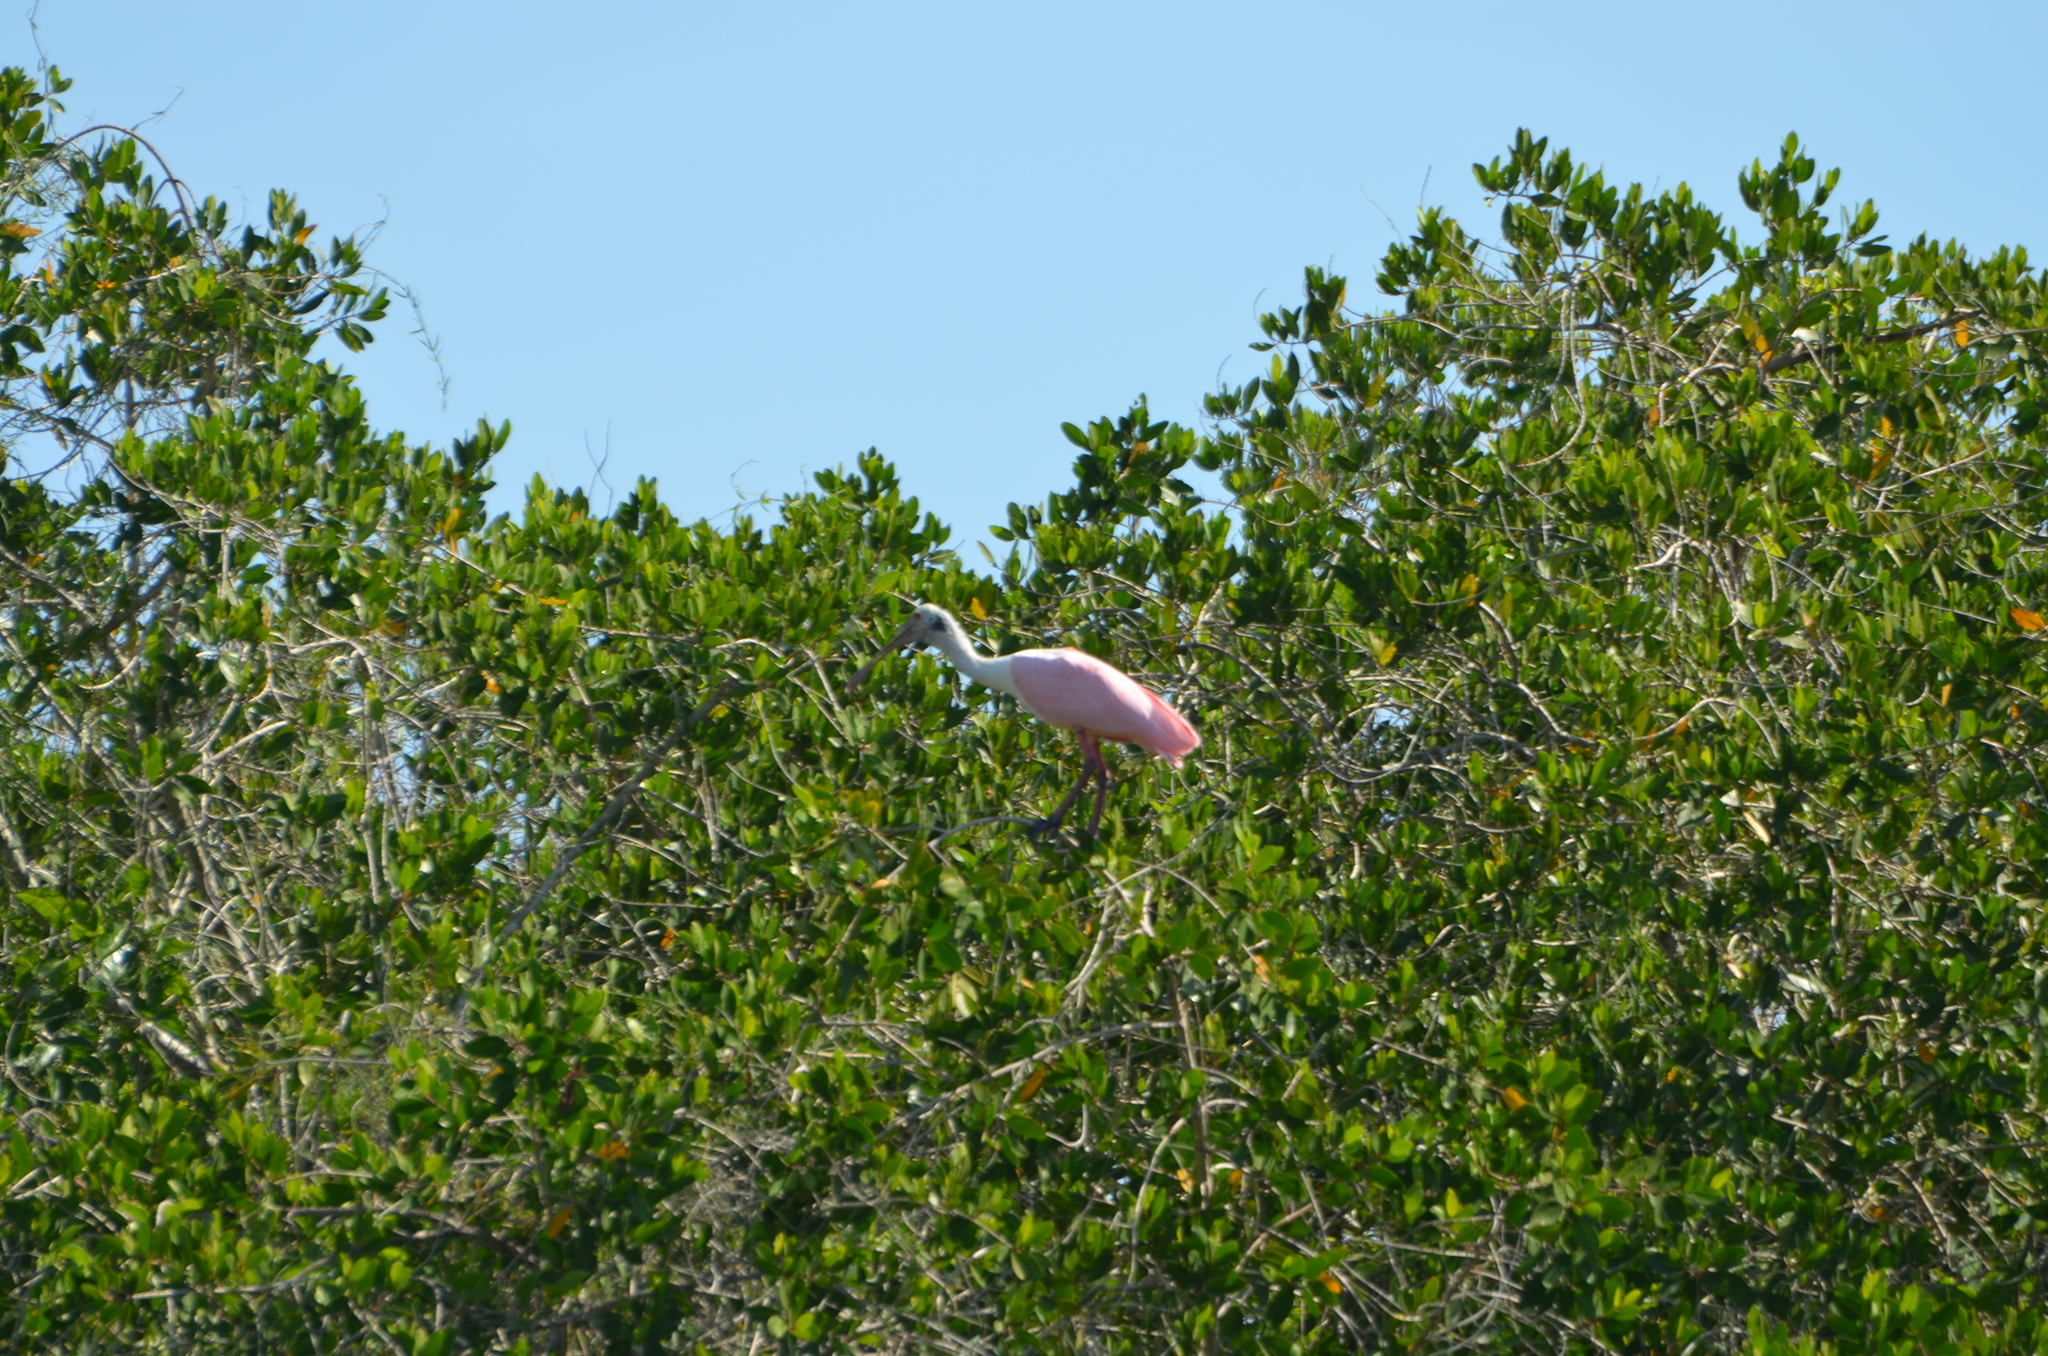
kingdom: Animalia
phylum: Chordata
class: Aves
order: Pelecaniformes
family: Threskiornithidae
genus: Platalea
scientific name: Platalea ajaja
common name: Roseate spoonbill
